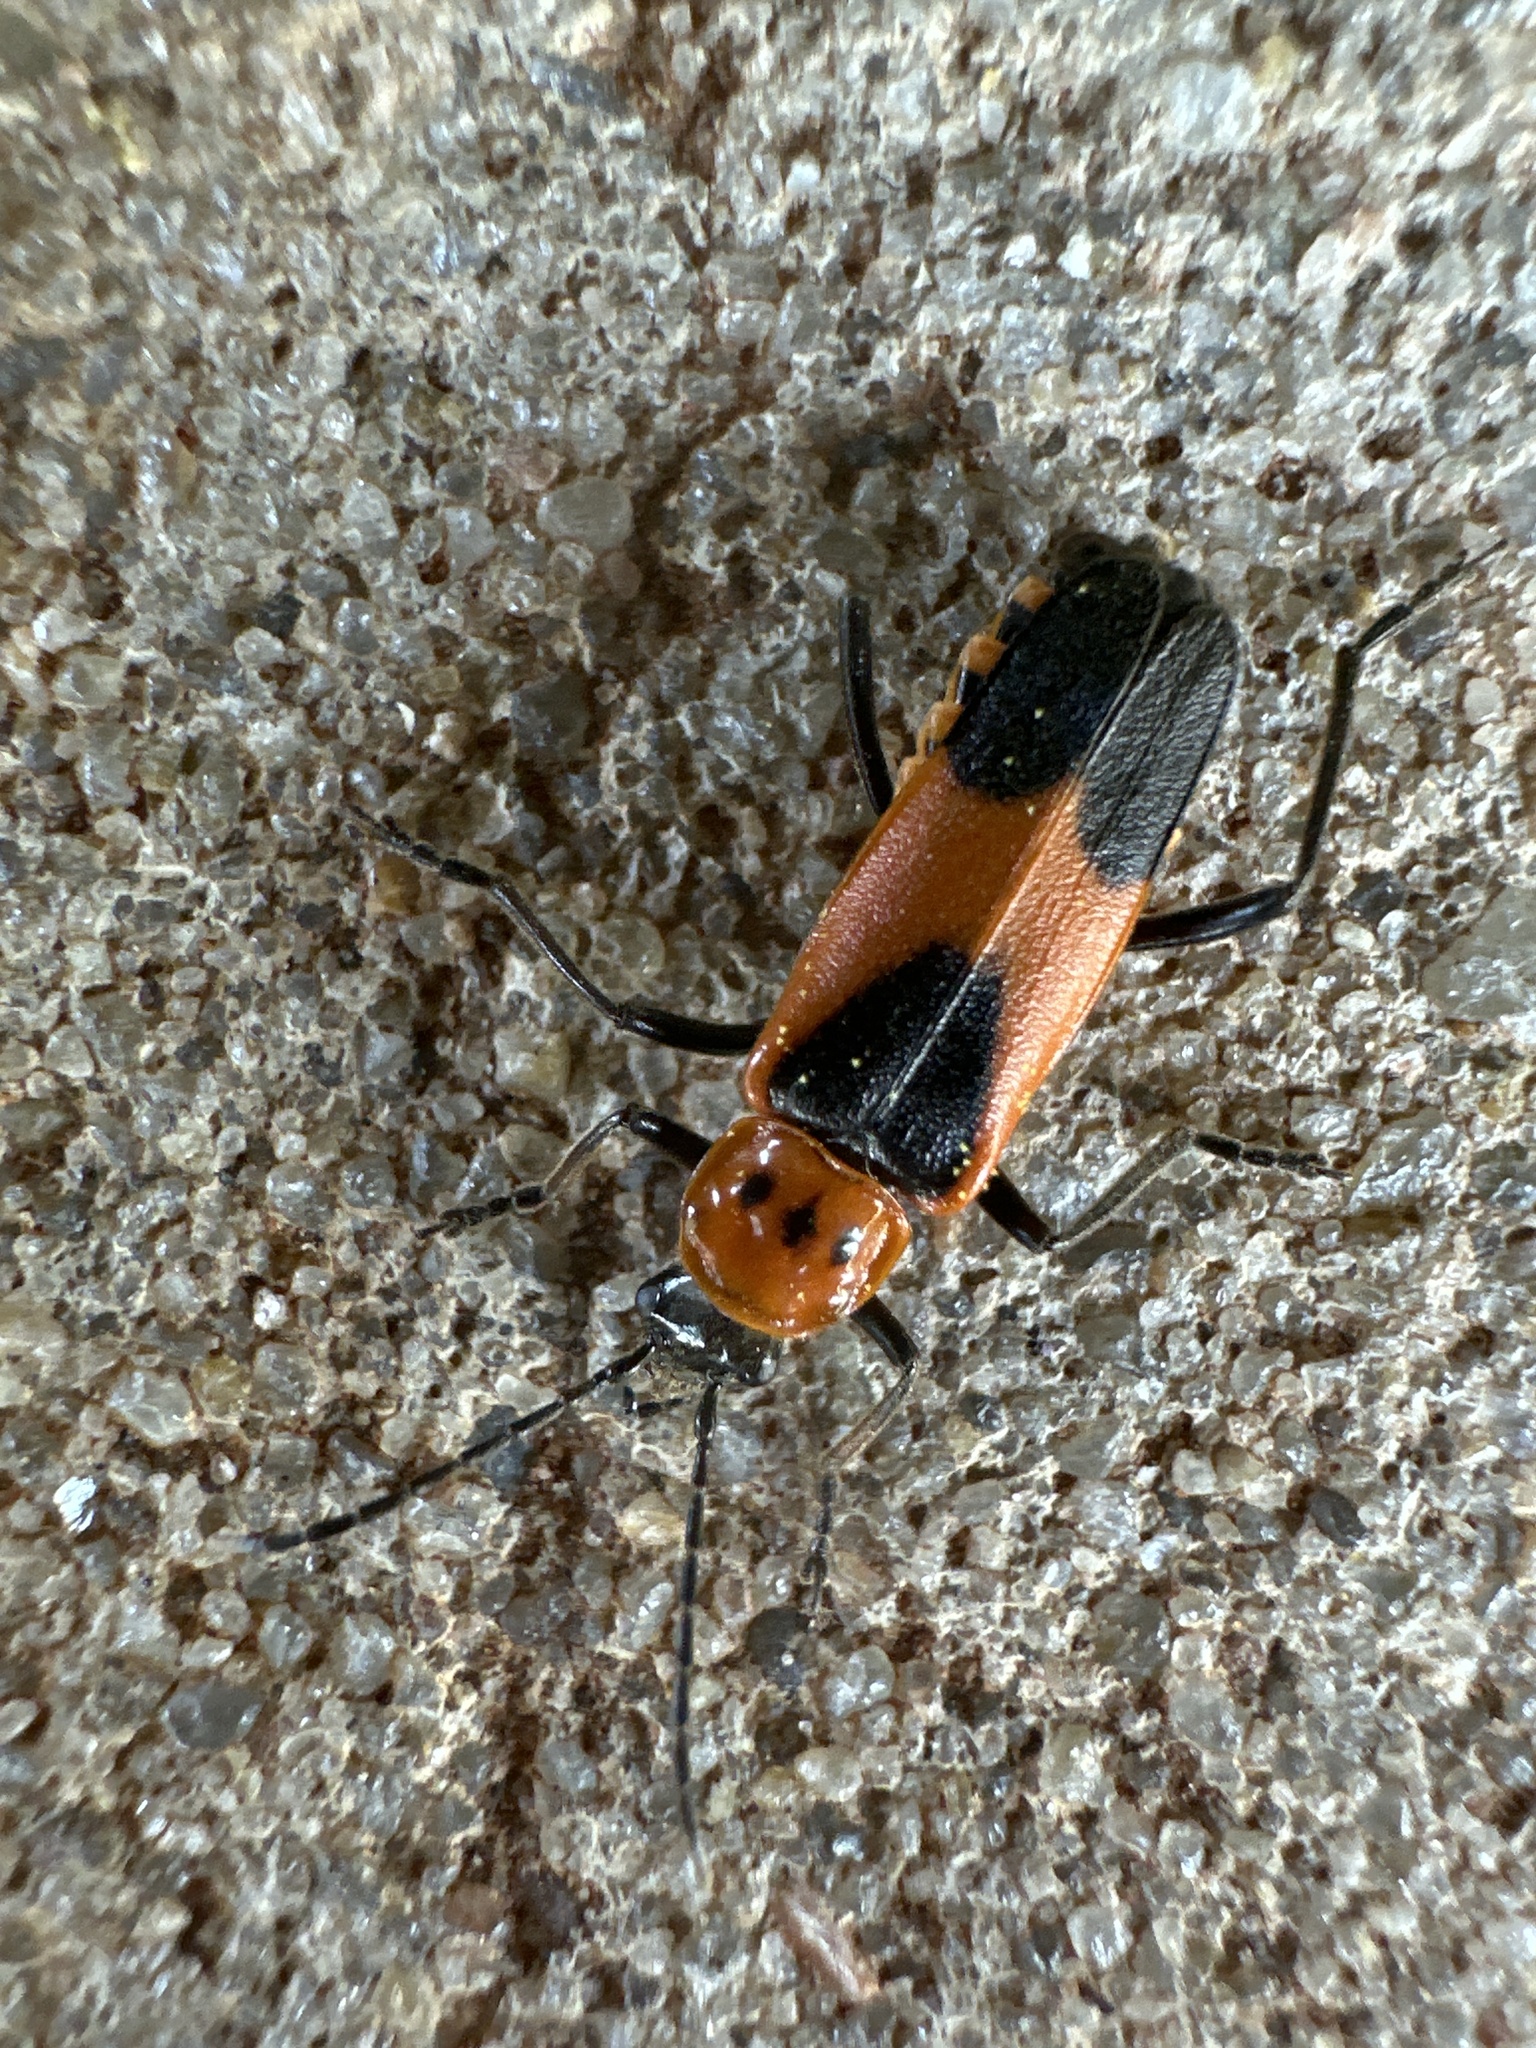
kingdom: Animalia
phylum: Arthropoda
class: Insecta
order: Coleoptera
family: Cantharidae
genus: Chauliognathus
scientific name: Chauliognathus basalis
